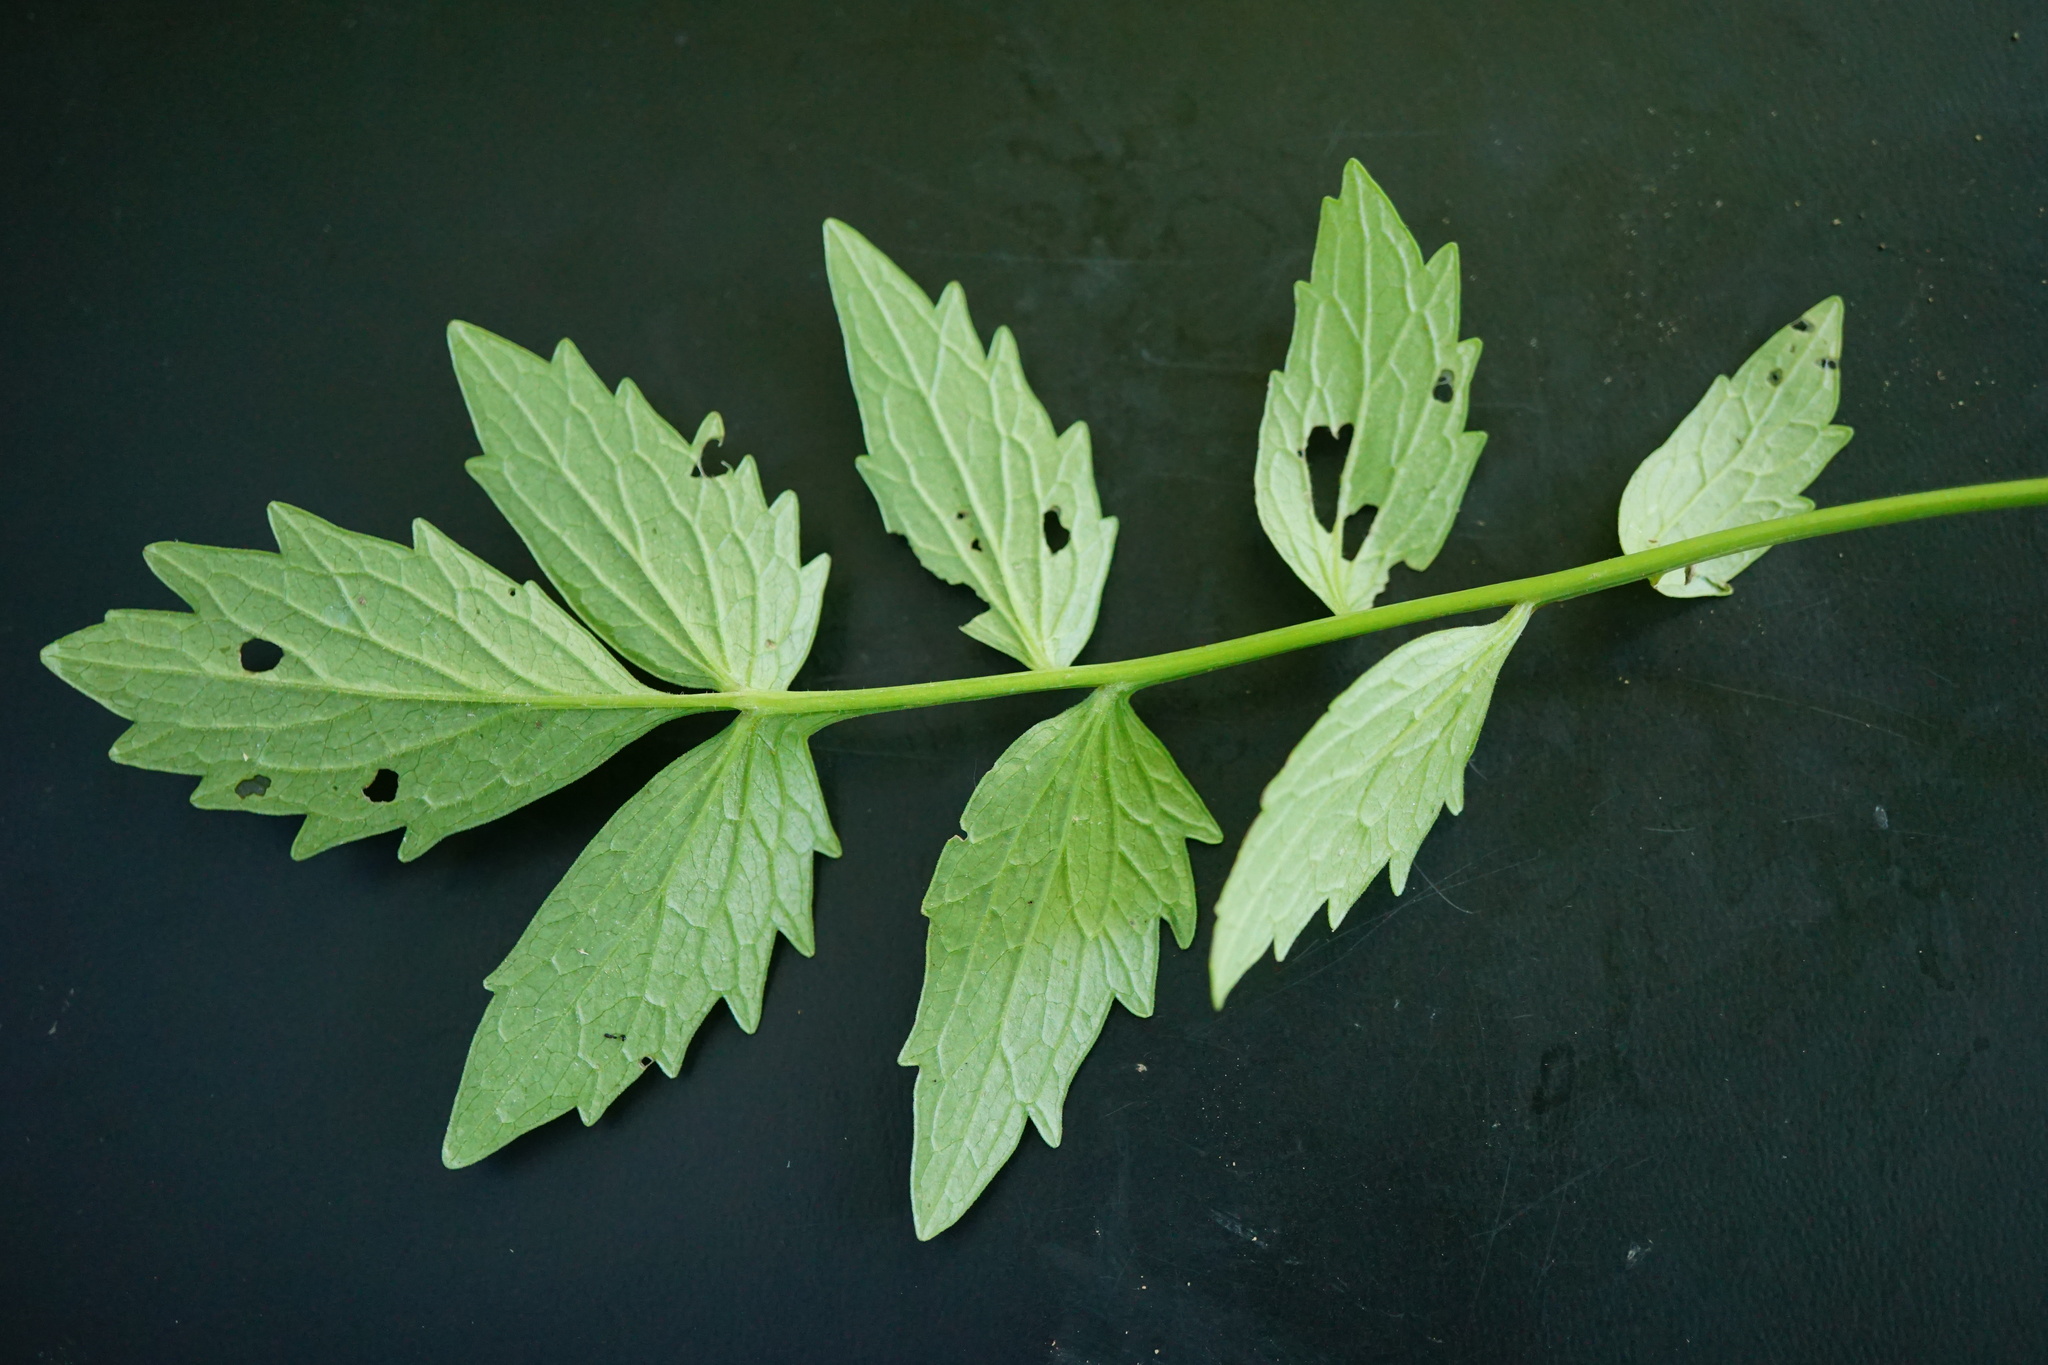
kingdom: Plantae
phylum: Tracheophyta
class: Magnoliopsida
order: Dipsacales
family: Caprifoliaceae
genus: Valeriana
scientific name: Valeriana
